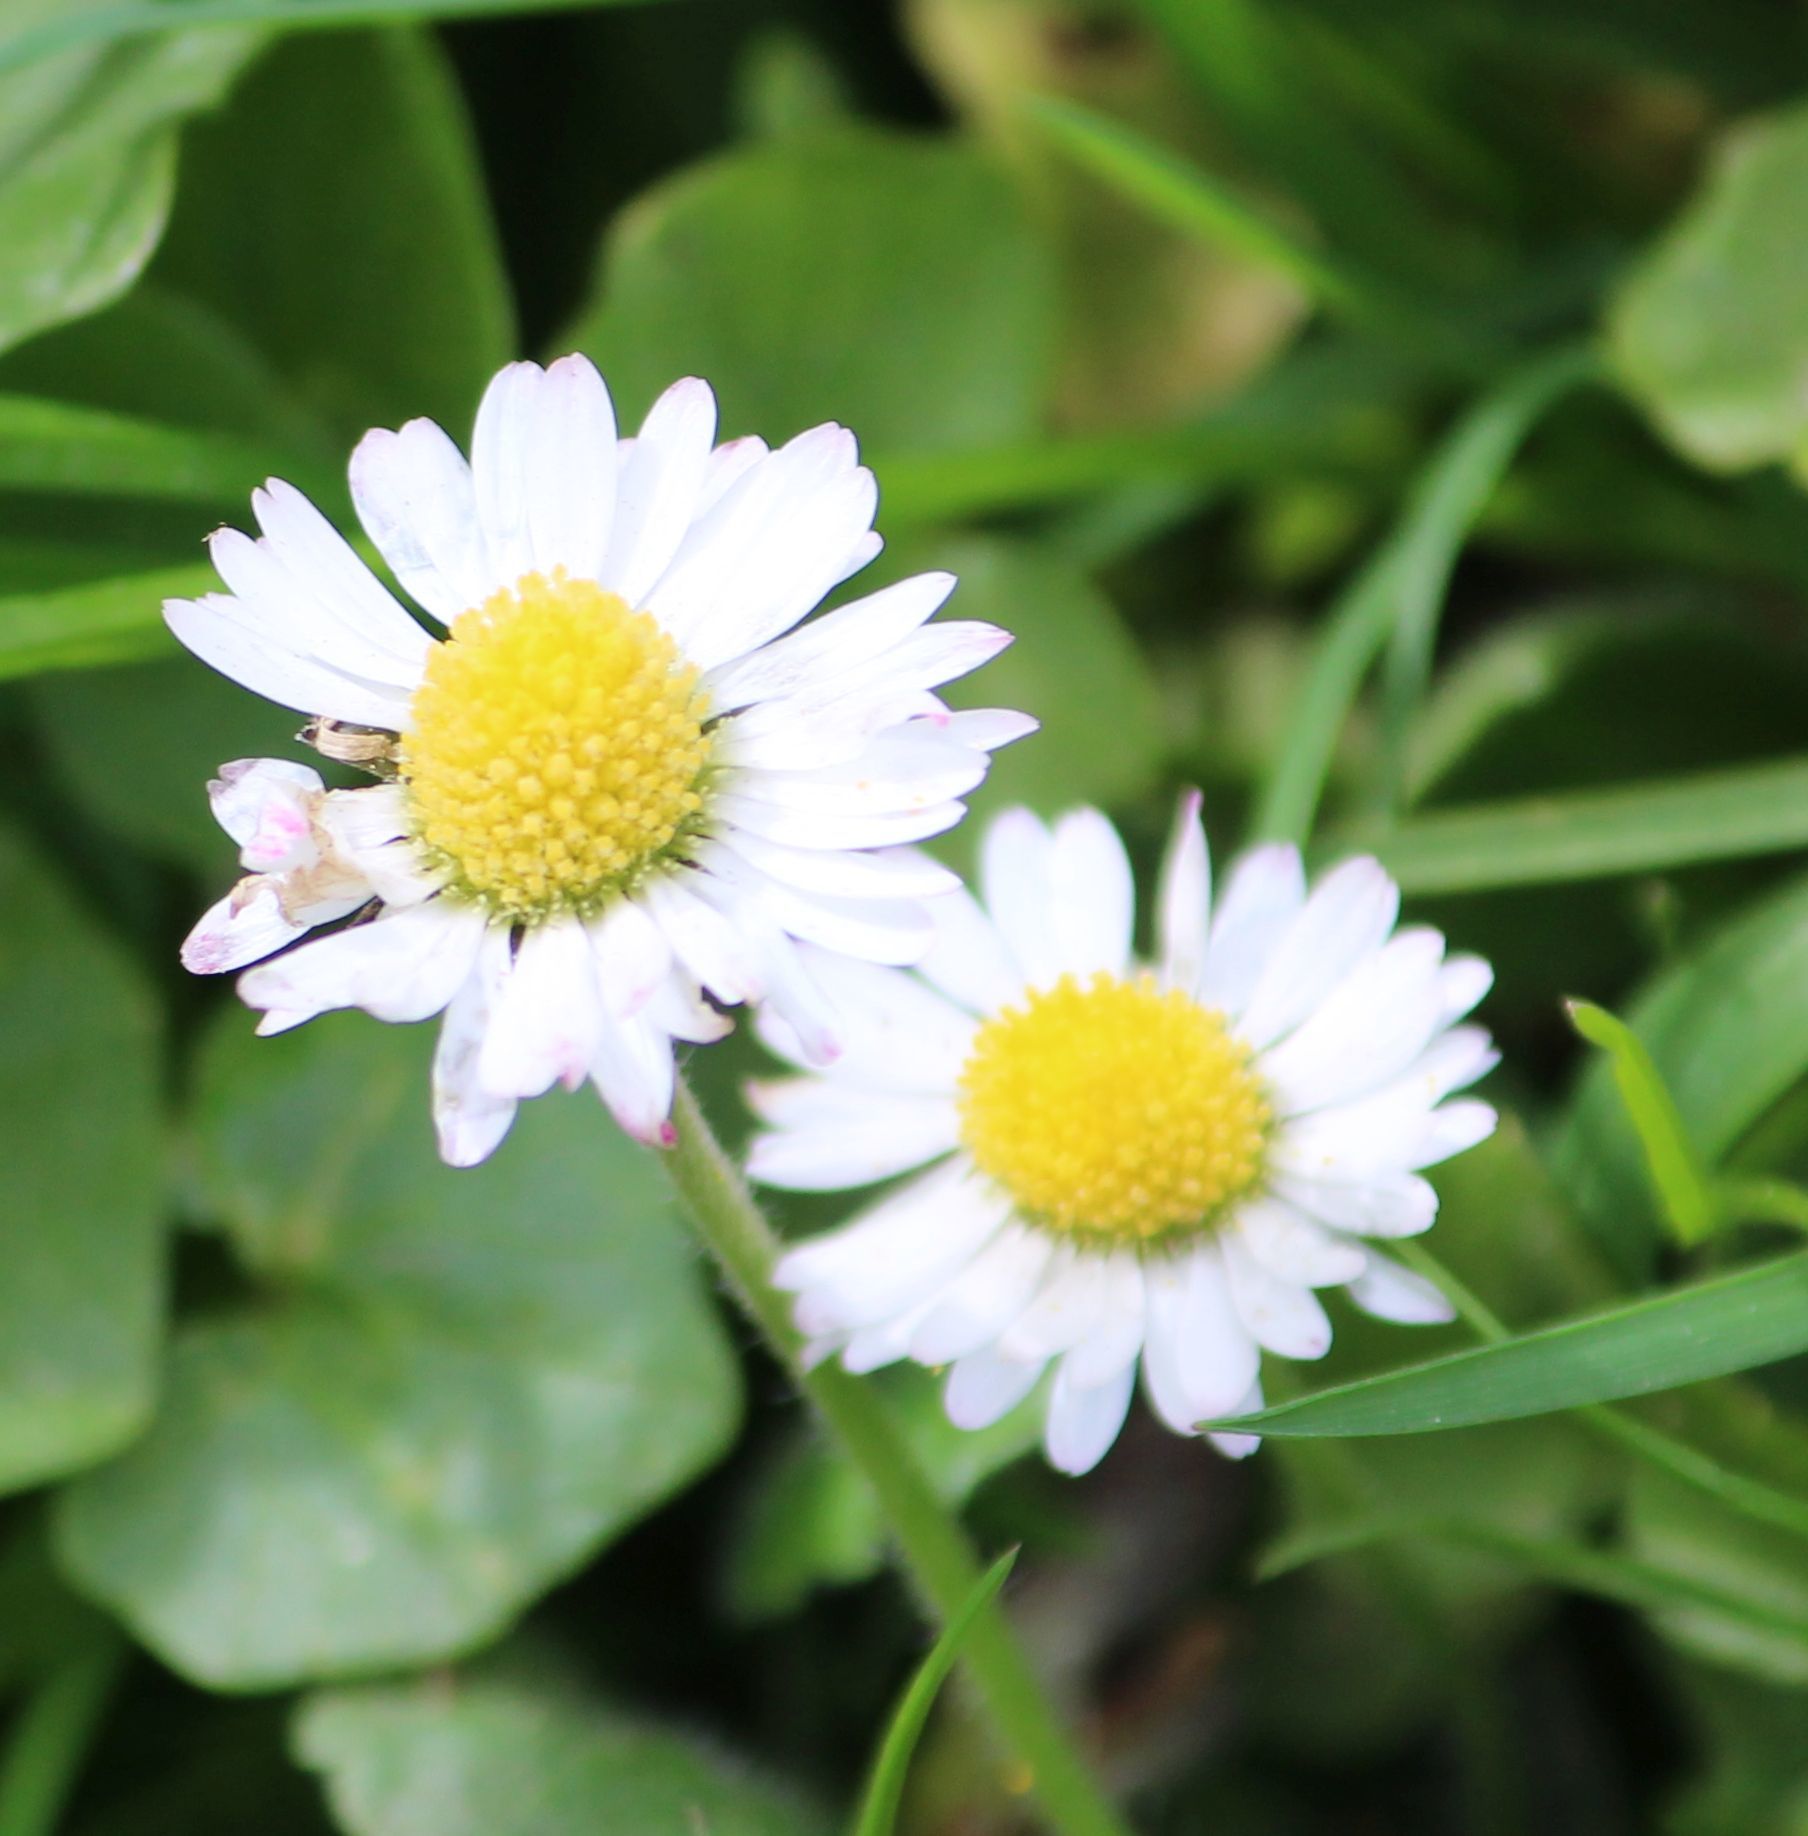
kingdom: Plantae
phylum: Tracheophyta
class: Magnoliopsida
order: Asterales
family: Asteraceae
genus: Bellis
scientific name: Bellis perennis
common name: Lawndaisy
